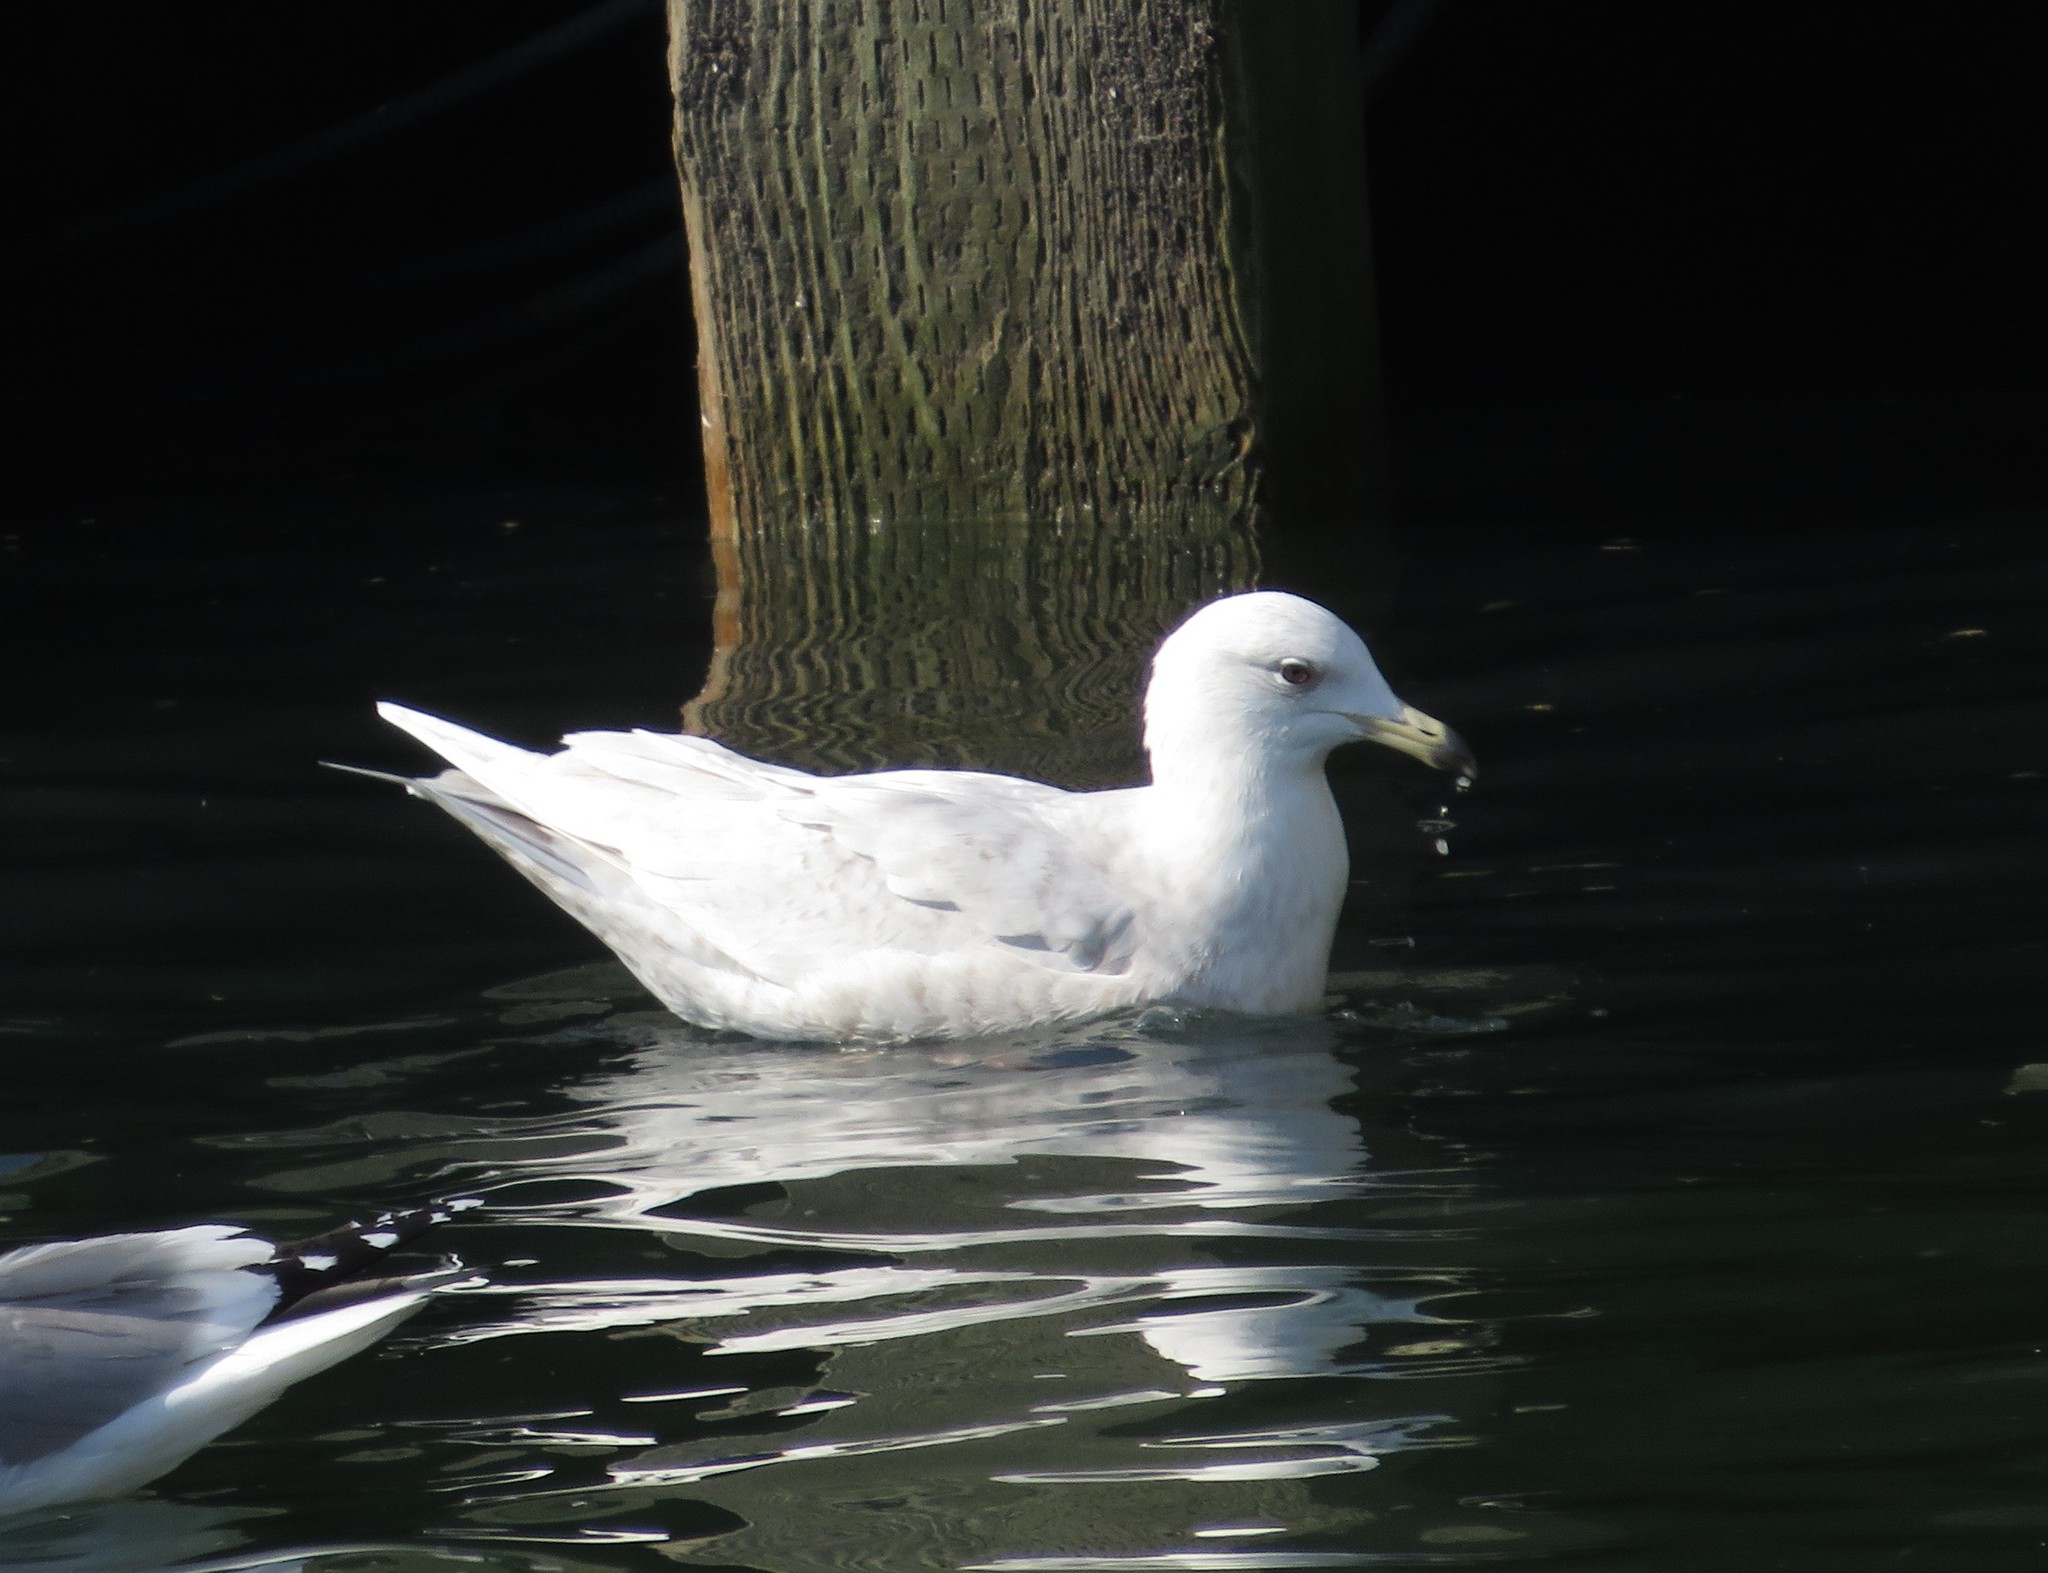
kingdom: Animalia
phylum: Chordata
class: Aves
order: Charadriiformes
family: Laridae
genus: Larus
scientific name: Larus glaucoides
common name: Iceland gull
